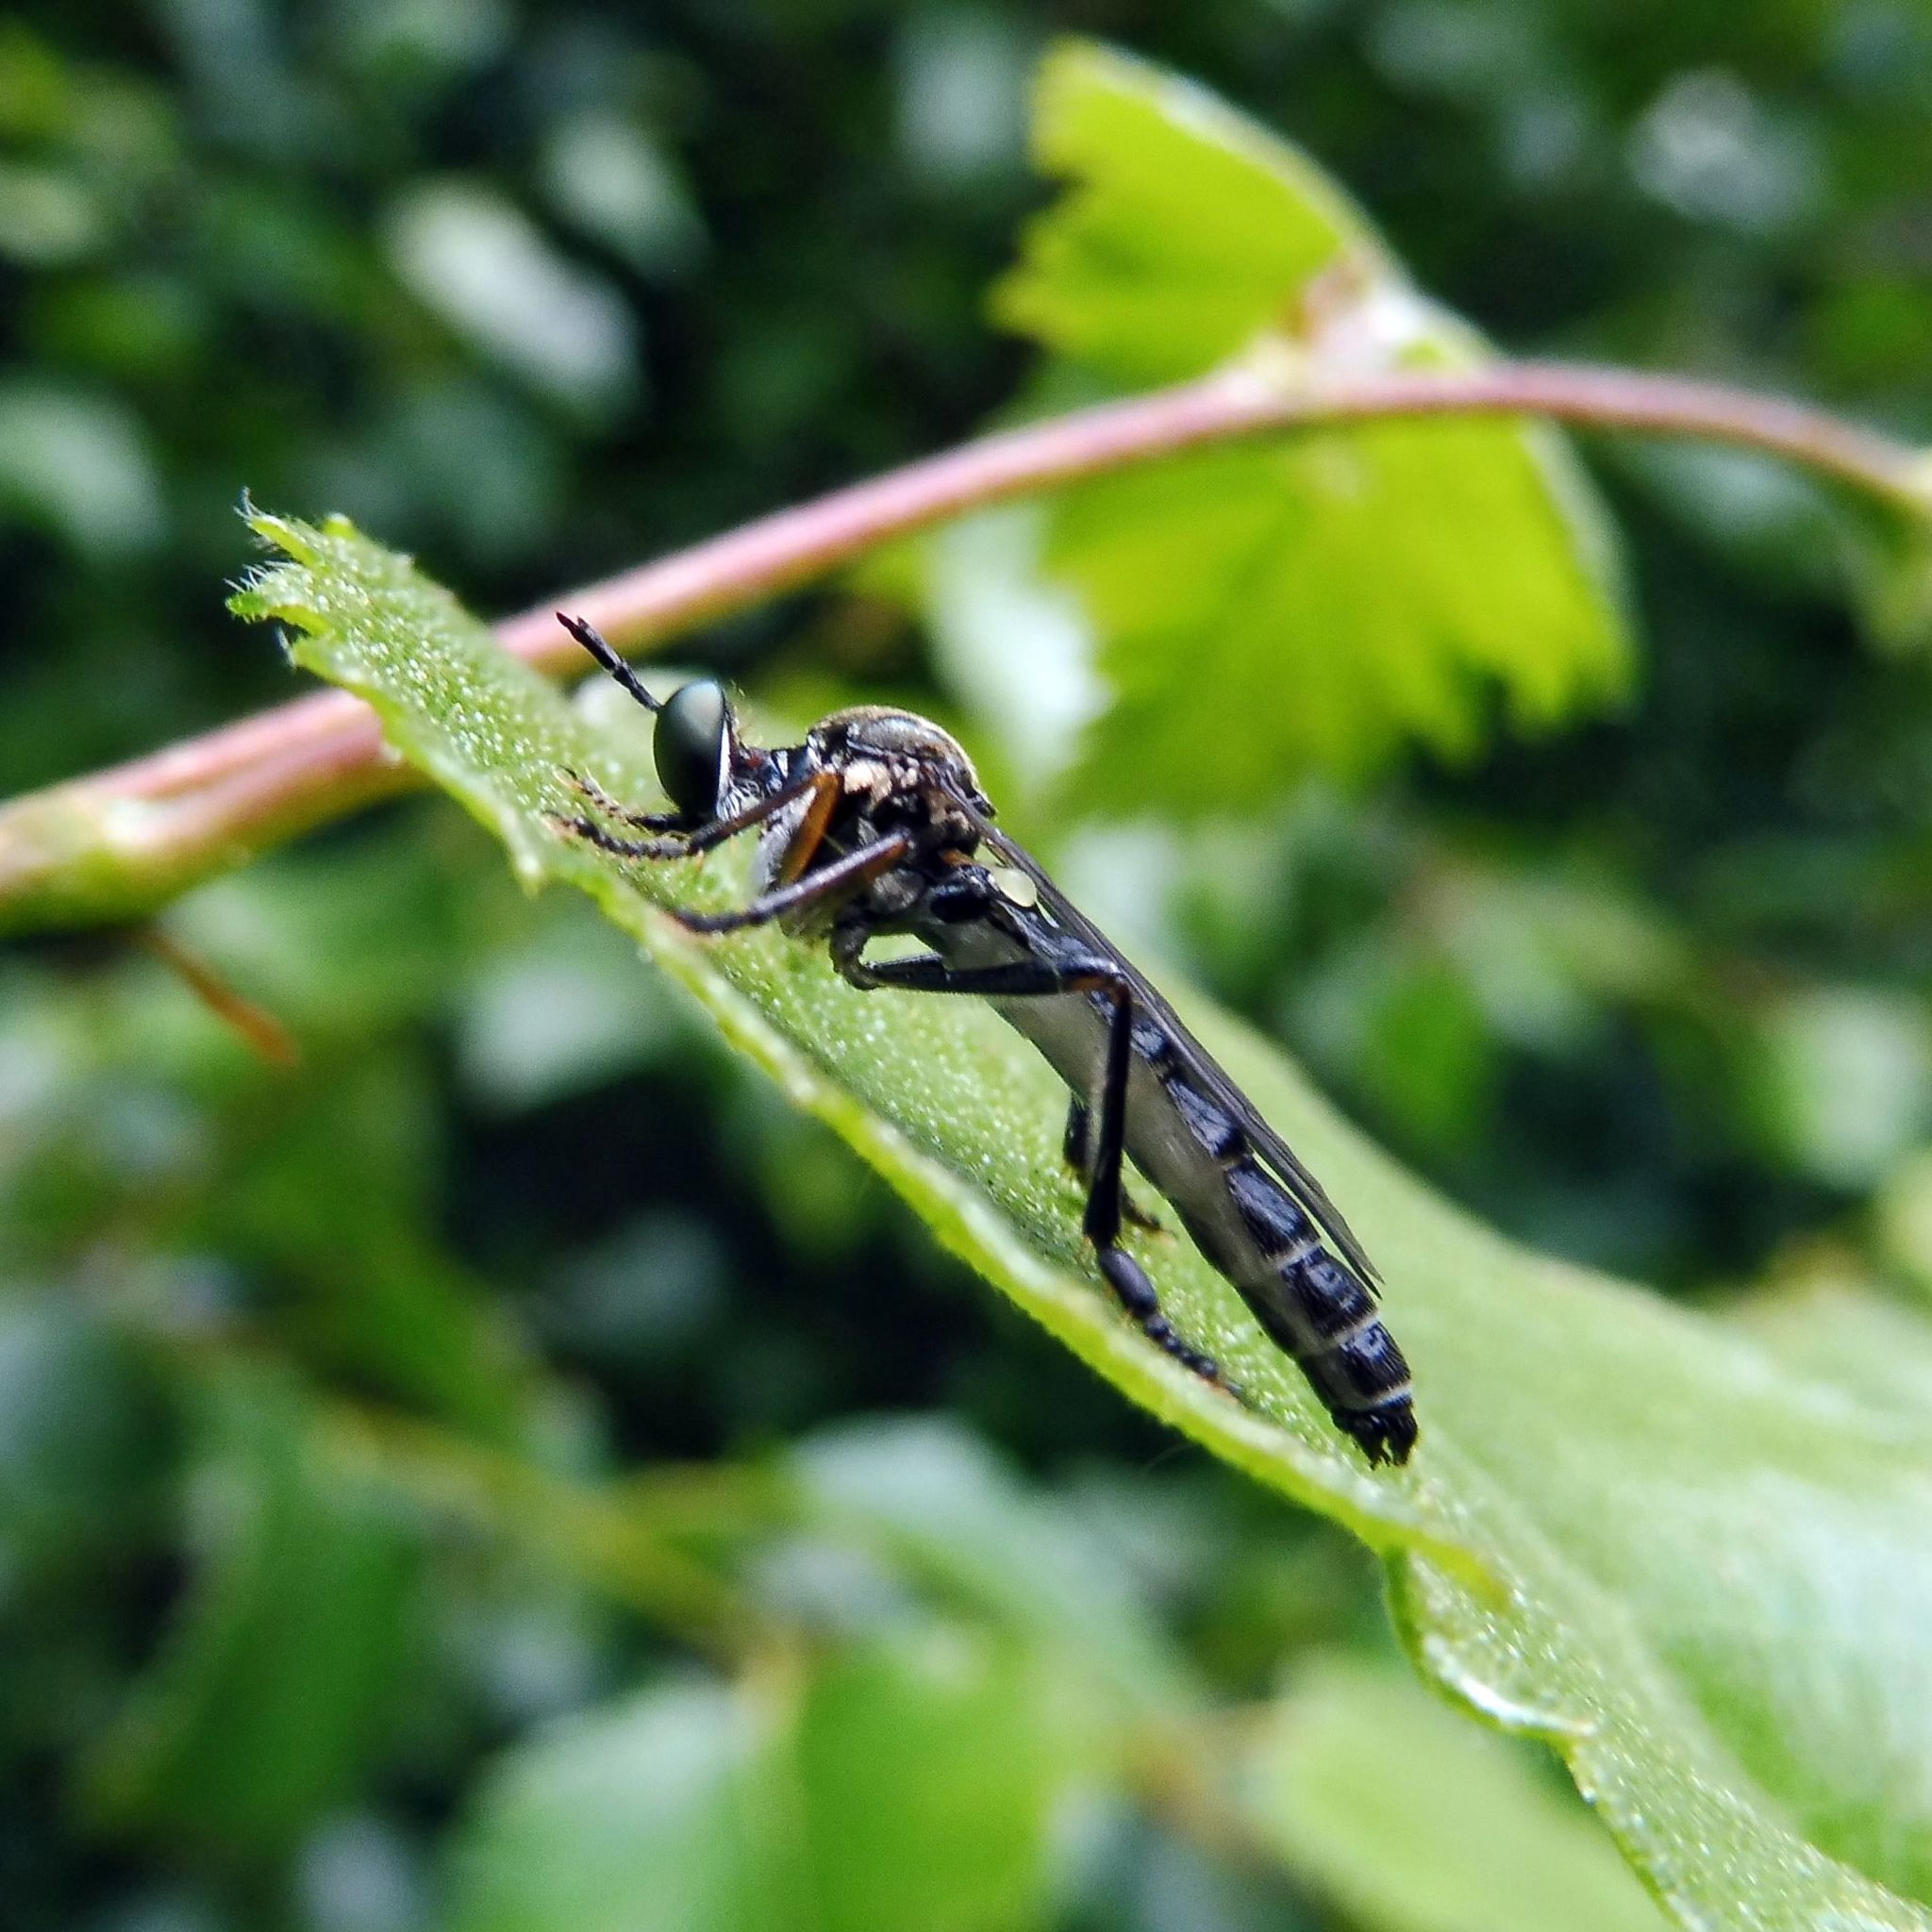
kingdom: Animalia
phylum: Arthropoda
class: Insecta
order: Diptera
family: Asilidae
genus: Dioctria
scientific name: Dioctria hyalipennis
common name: Stripe-legged robberfly
